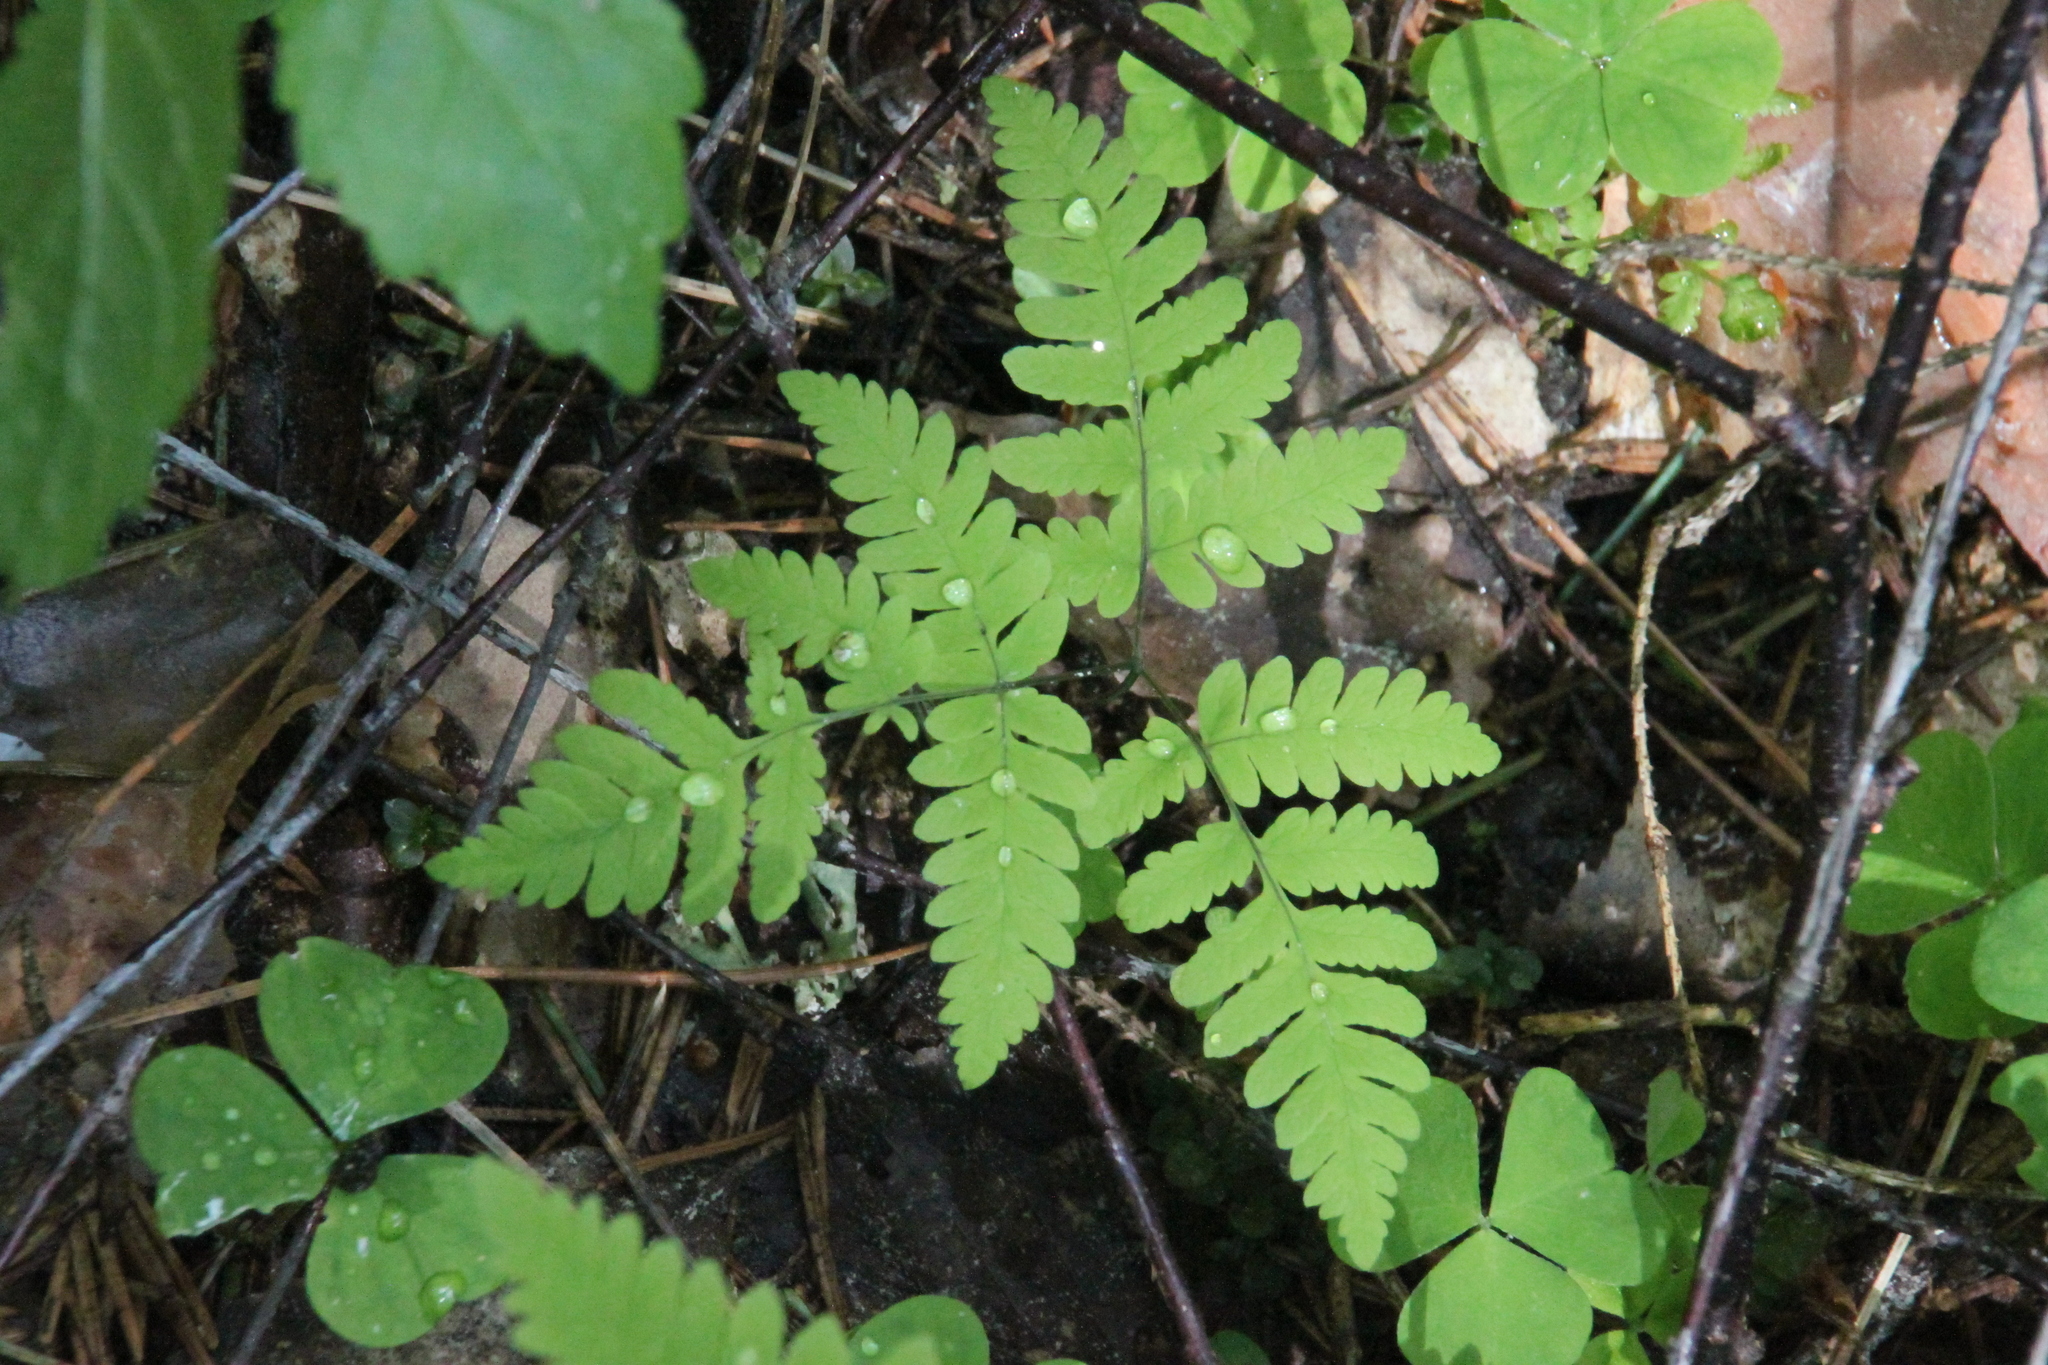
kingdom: Plantae
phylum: Tracheophyta
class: Polypodiopsida
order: Polypodiales
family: Cystopteridaceae
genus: Gymnocarpium
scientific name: Gymnocarpium dryopteris
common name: Oak fern
